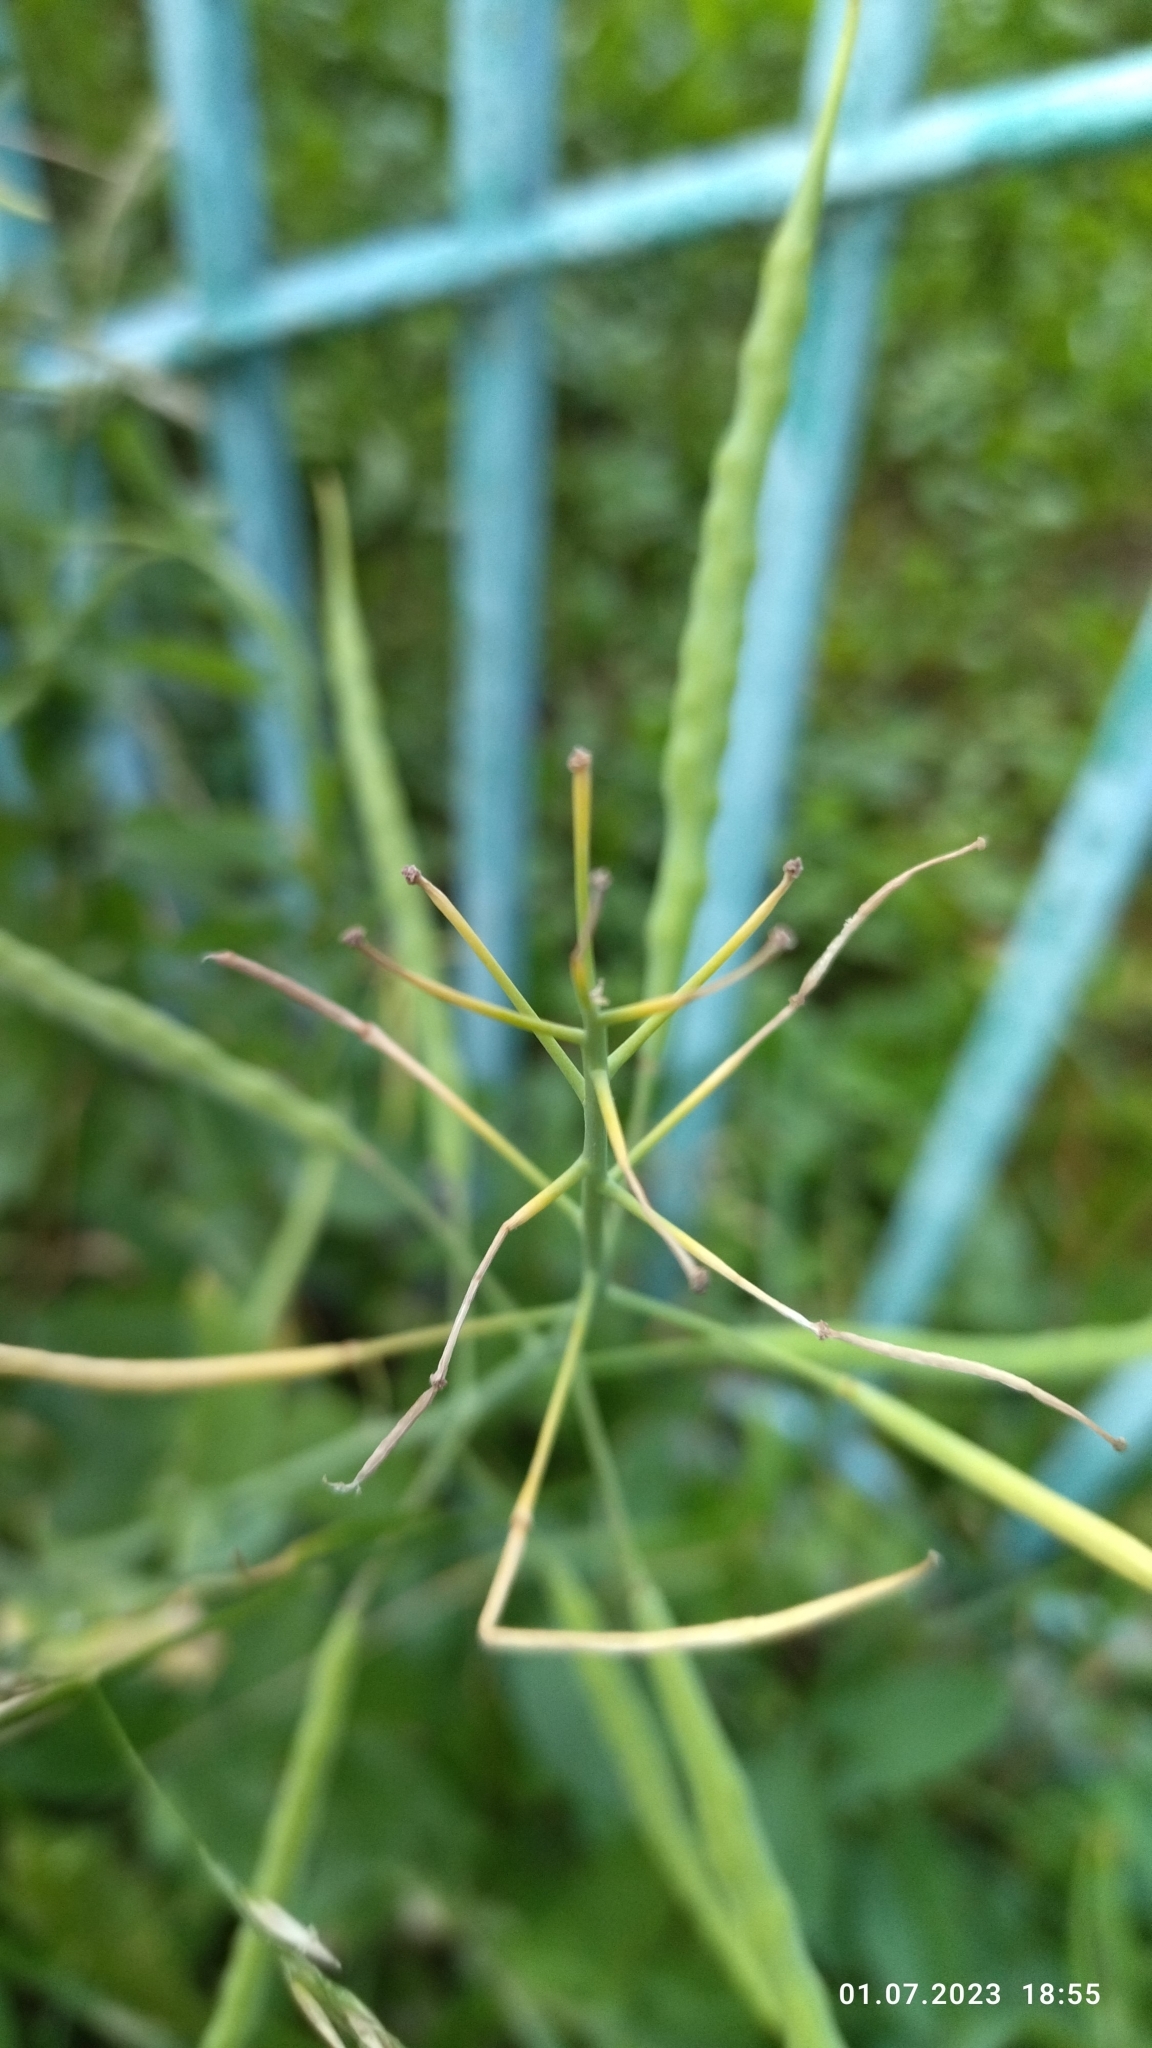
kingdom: Plantae
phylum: Tracheophyta
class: Magnoliopsida
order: Brassicales
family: Brassicaceae
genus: Brassica
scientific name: Brassica napus
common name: Rape
